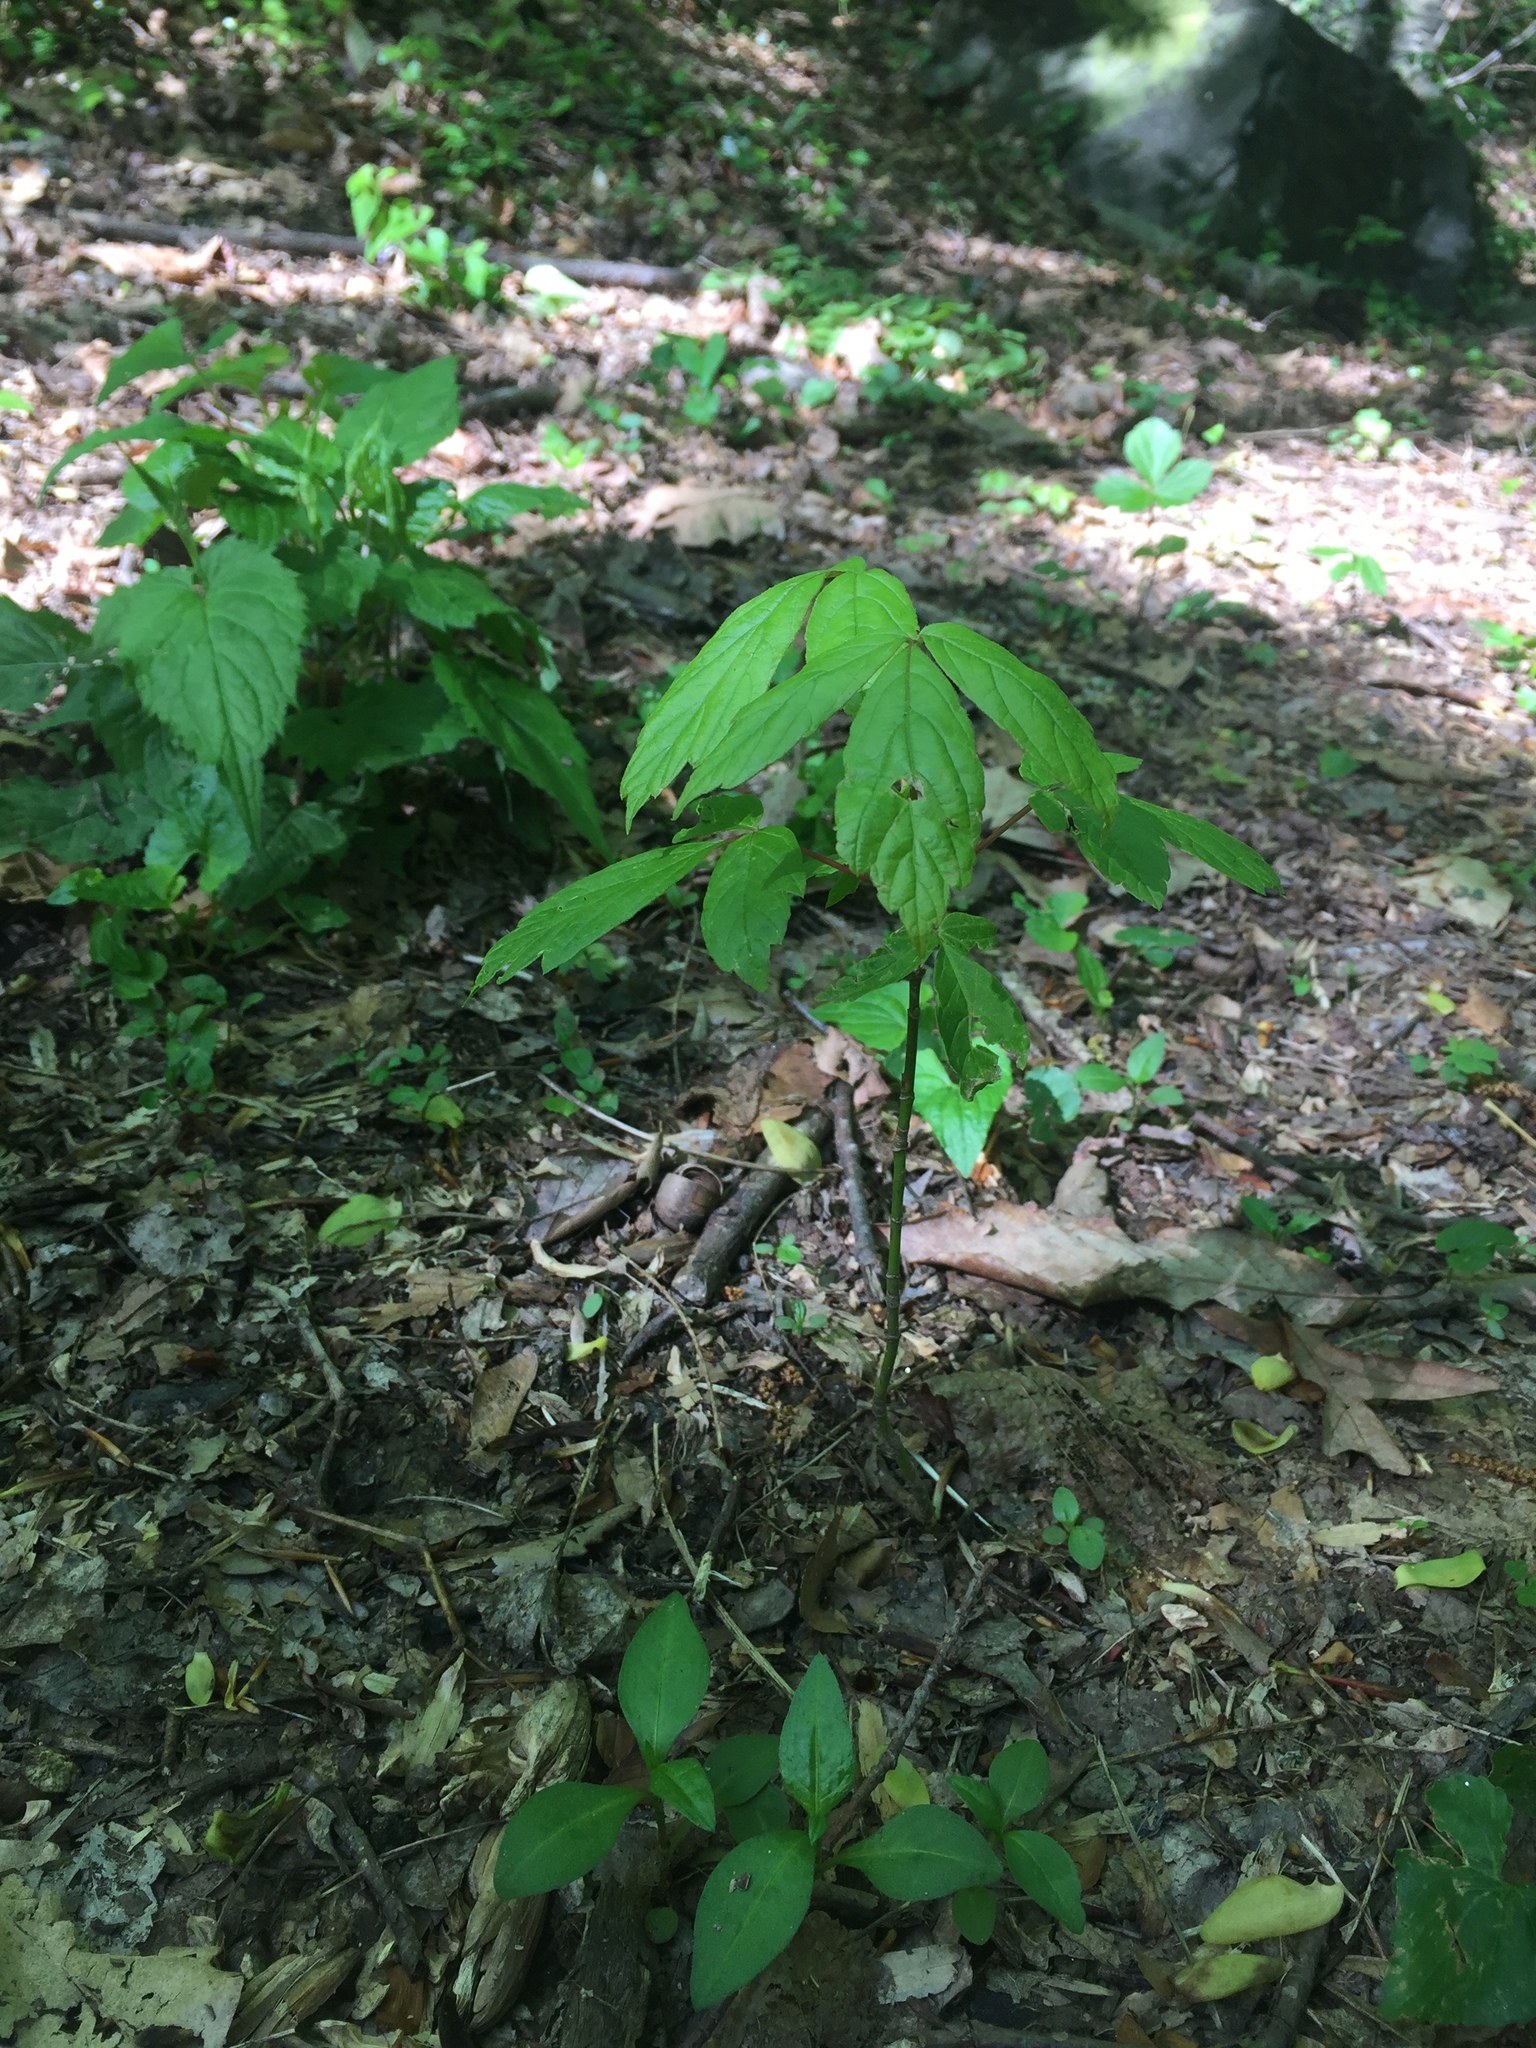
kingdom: Plantae
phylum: Tracheophyta
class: Magnoliopsida
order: Sapindales
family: Sapindaceae
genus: Acer
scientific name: Acer negundo
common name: Ashleaf maple
